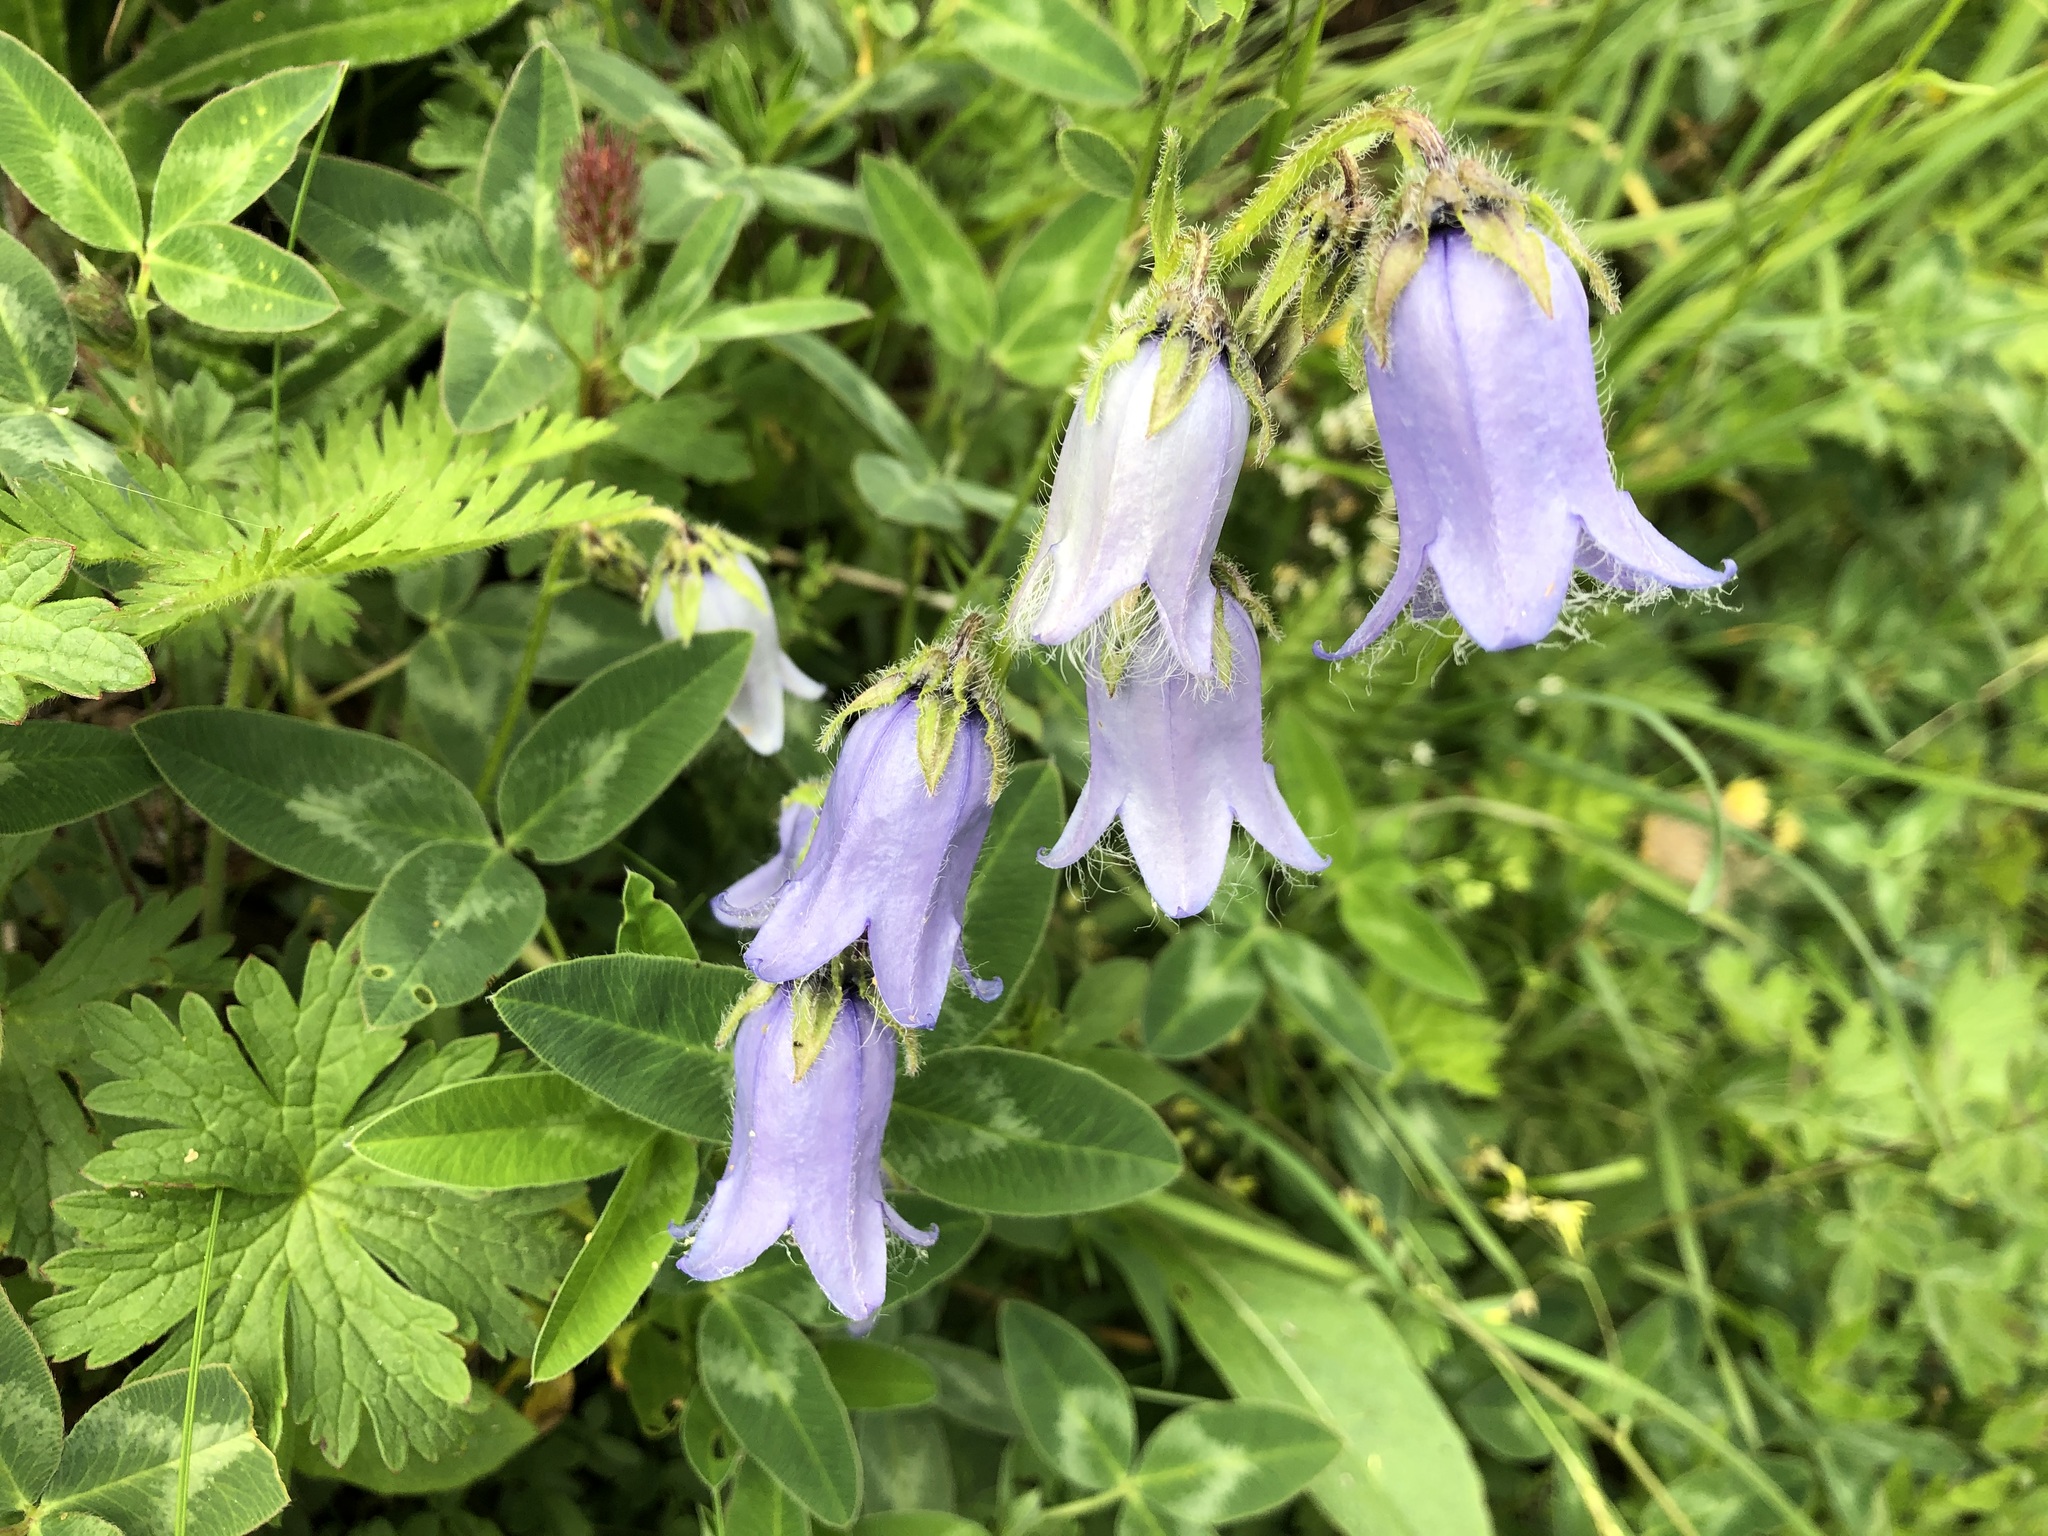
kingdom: Plantae
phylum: Tracheophyta
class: Magnoliopsida
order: Asterales
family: Campanulaceae
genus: Campanula
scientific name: Campanula barbata
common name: Bearded bellflower
